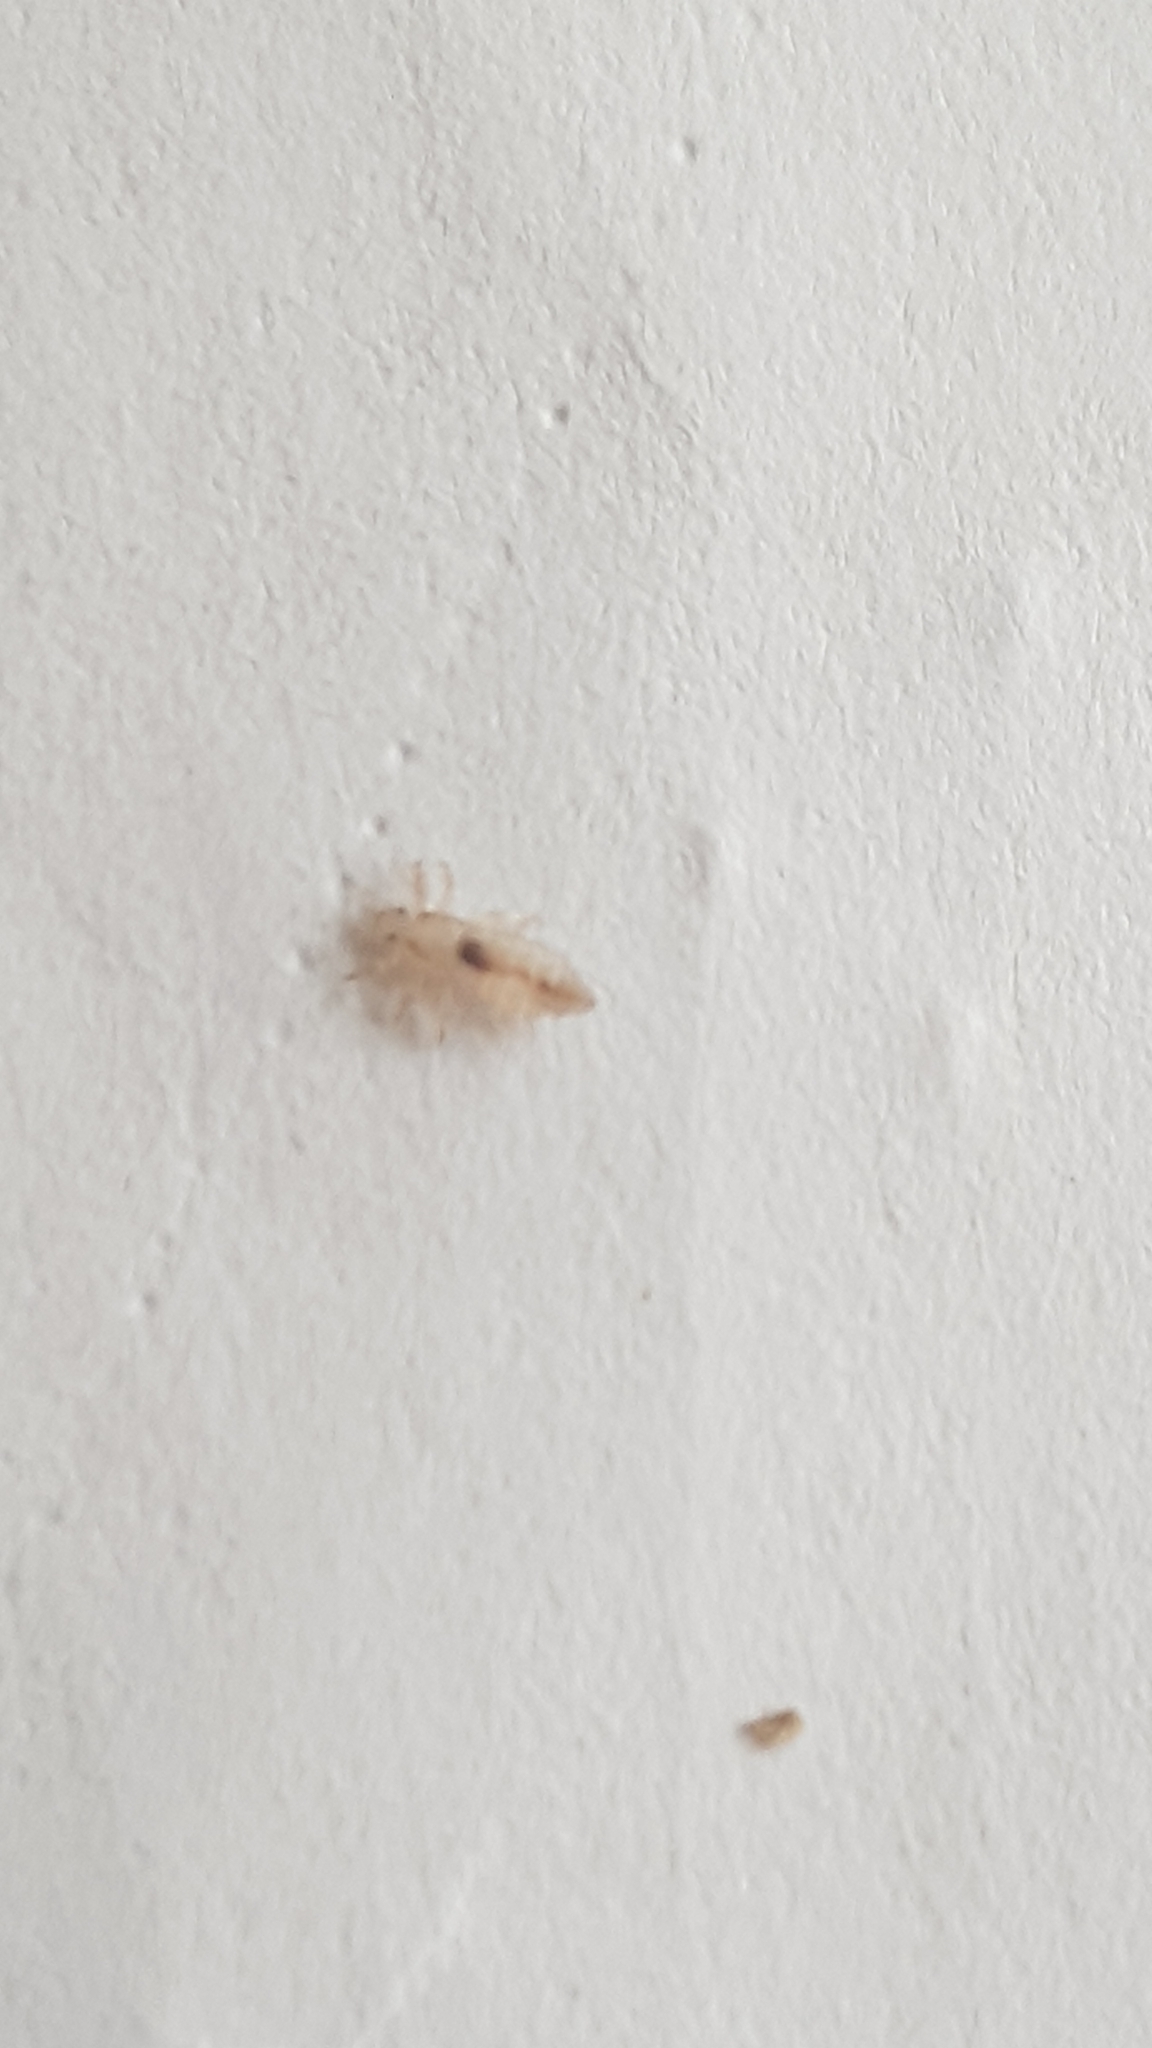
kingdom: Animalia
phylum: Arthropoda
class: Insecta
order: Psocodea
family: Pediculidae
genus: Pediculus
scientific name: Pediculus humanus
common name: Body louse
